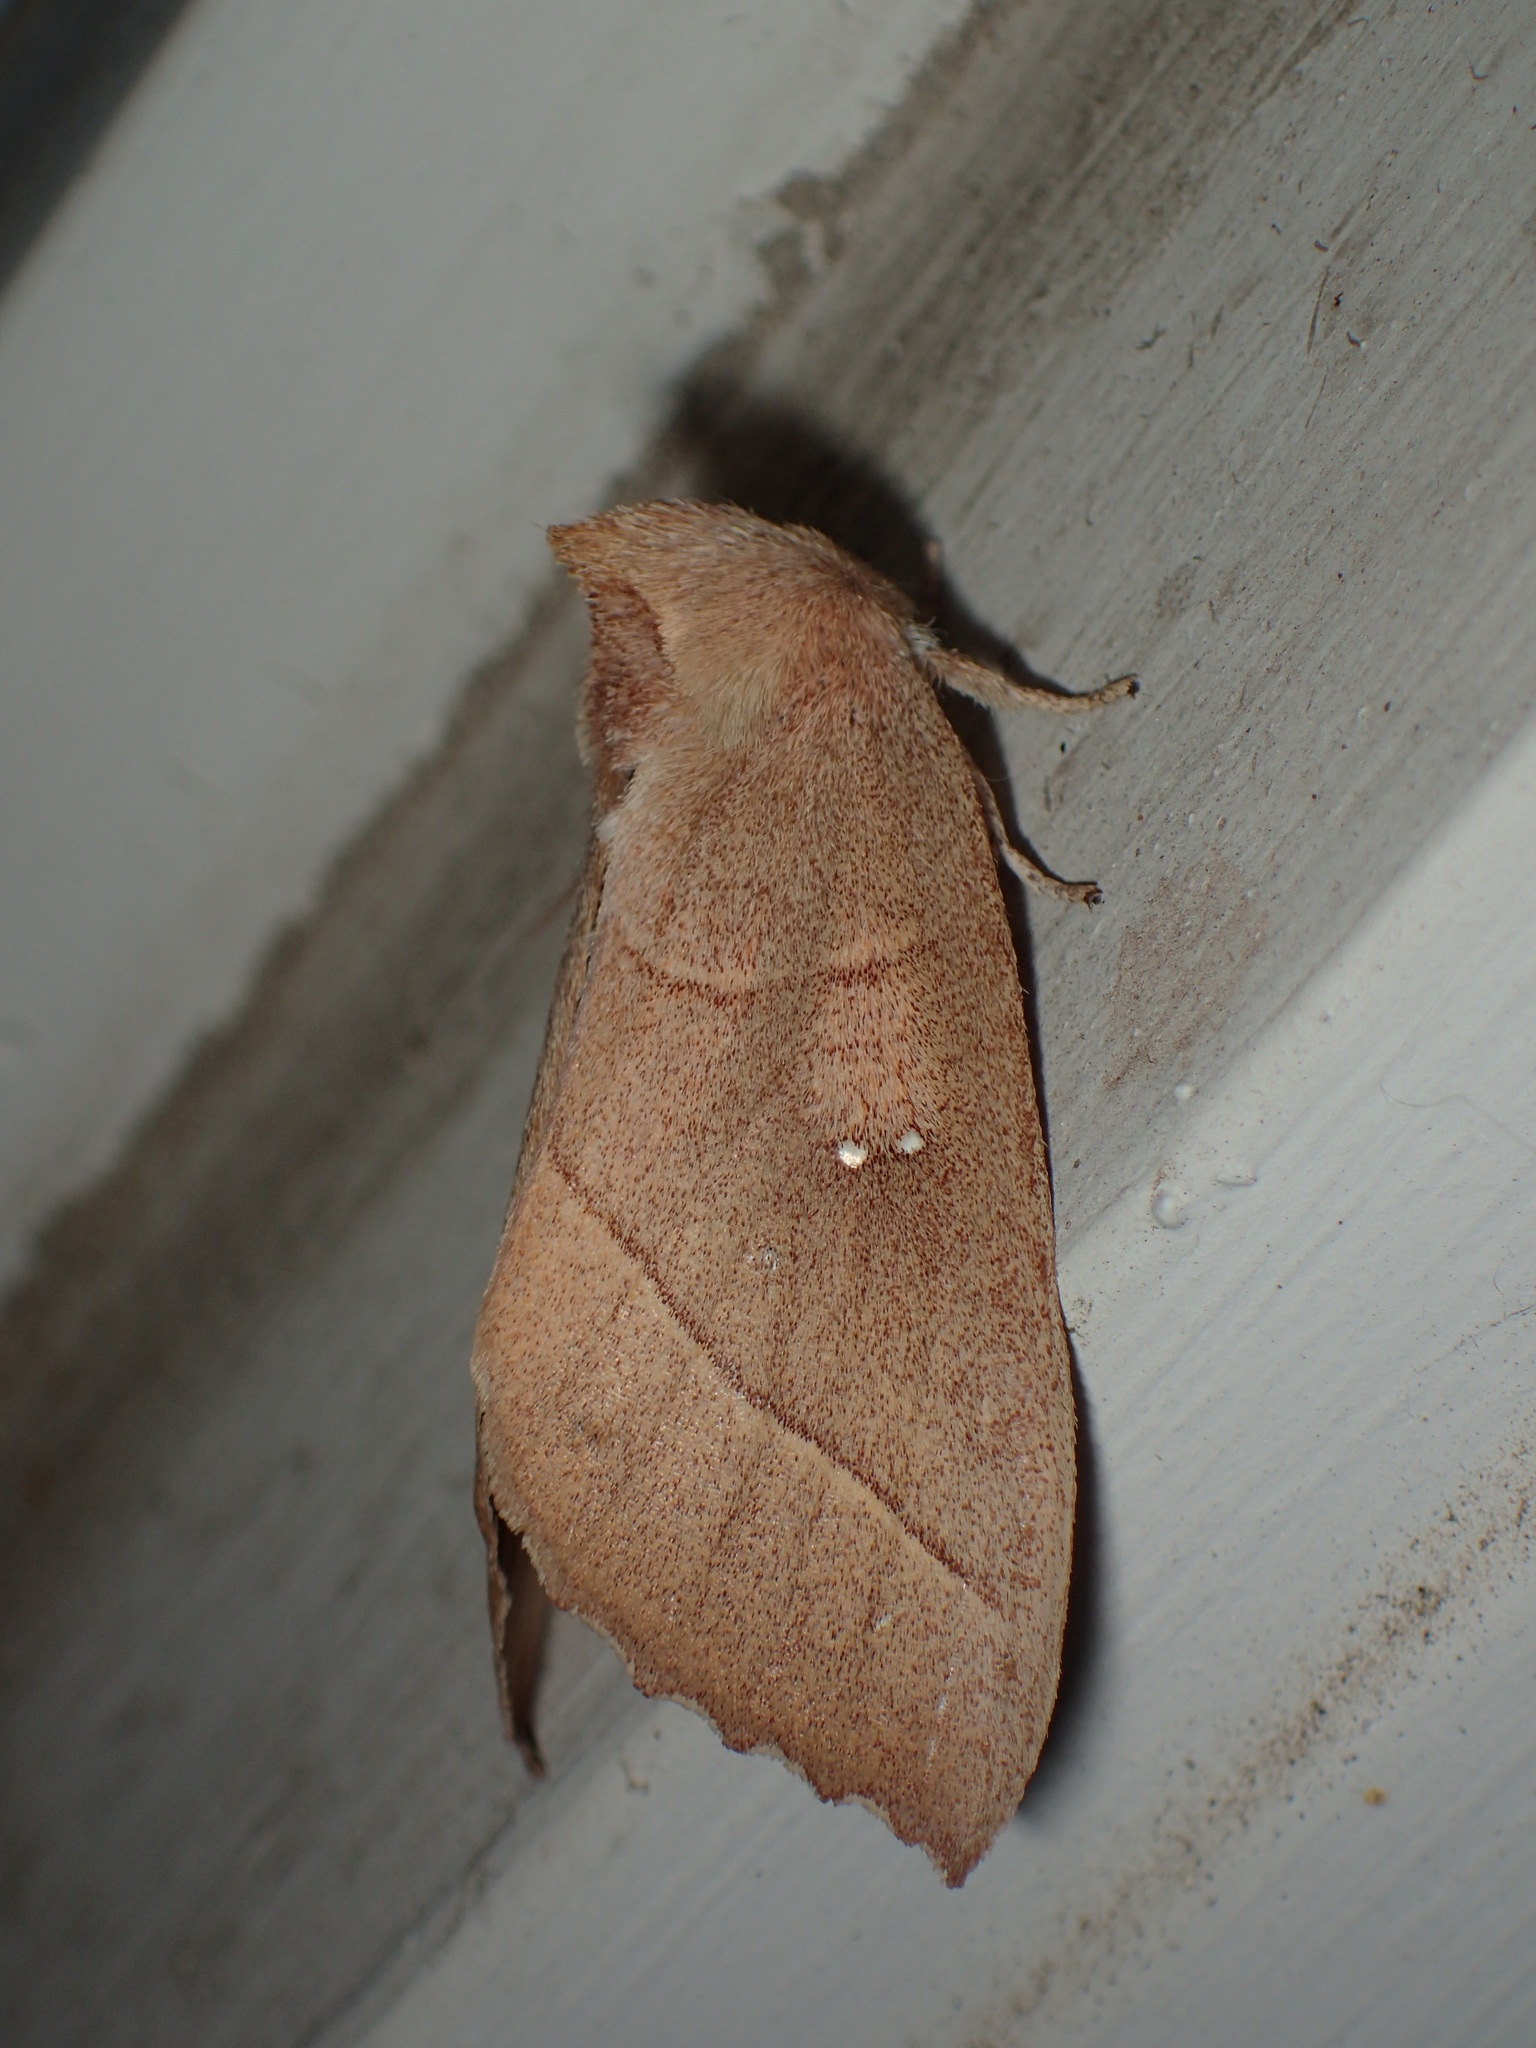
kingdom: Animalia
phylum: Arthropoda
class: Insecta
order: Lepidoptera
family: Notodontidae
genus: Nadata
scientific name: Nadata gibbosa
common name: White-dotted prominent
